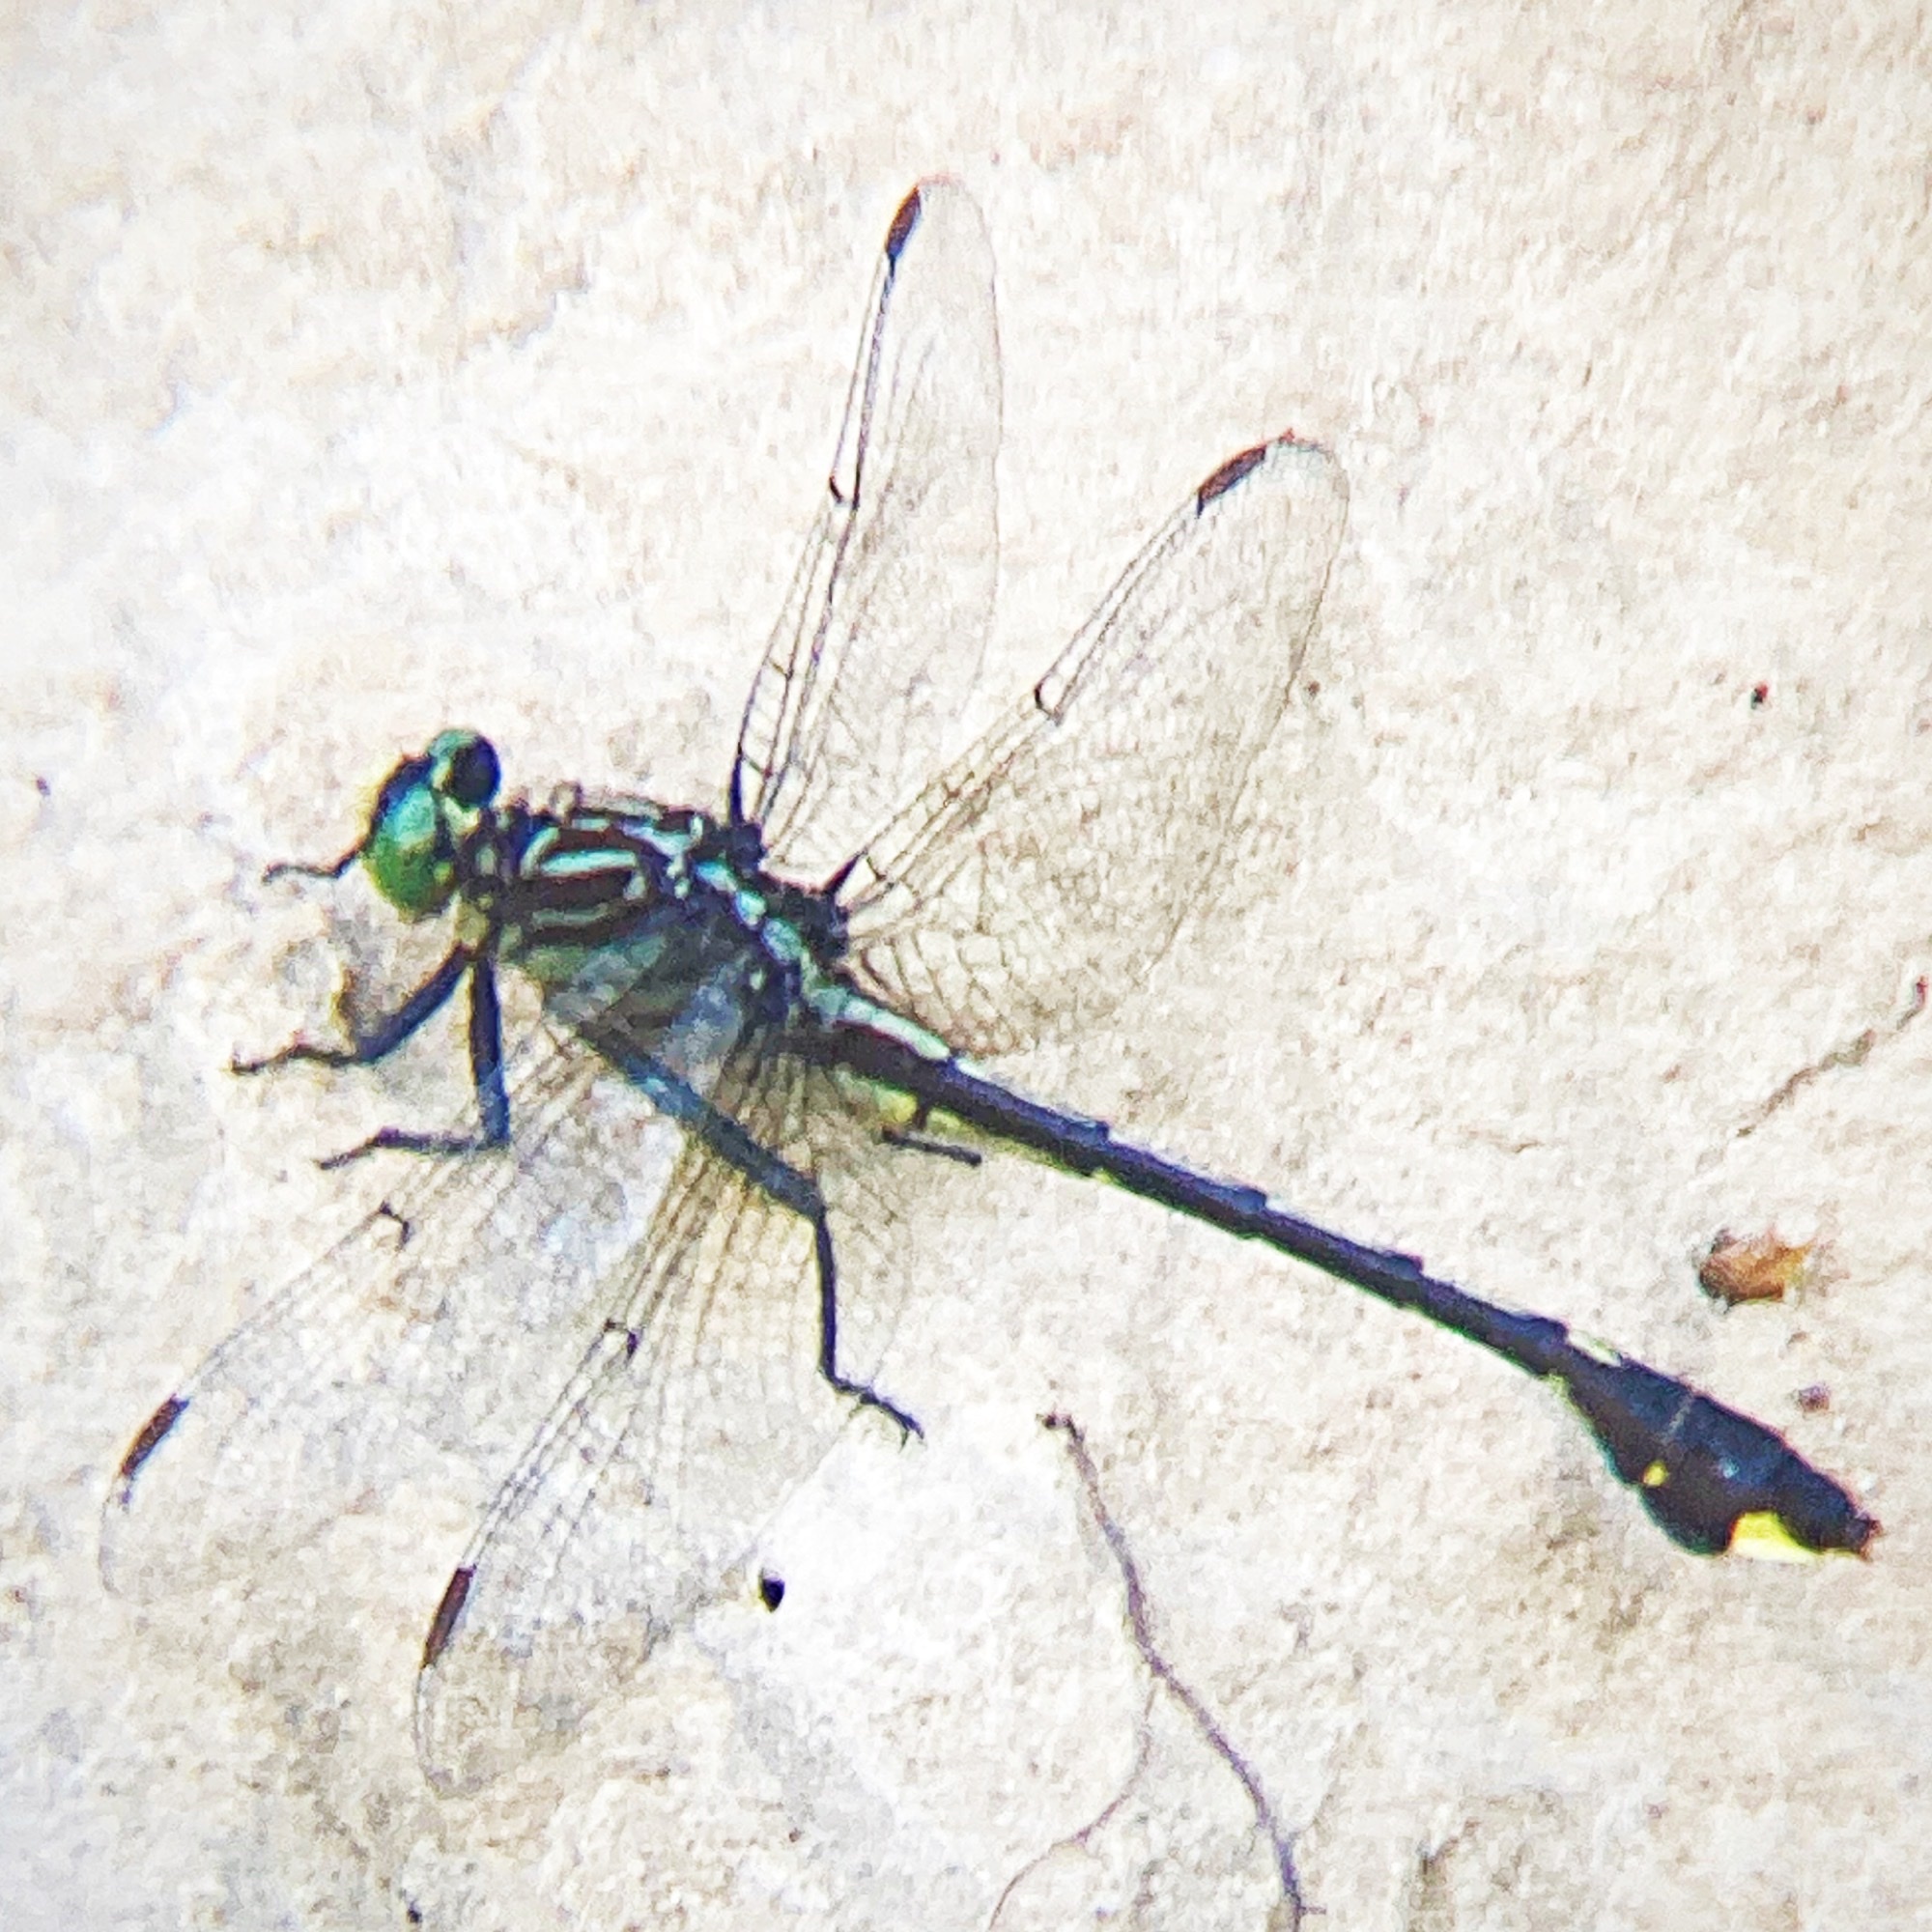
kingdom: Animalia
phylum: Arthropoda
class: Insecta
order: Odonata
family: Gomphidae
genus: Gomphurus
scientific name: Gomphurus vastus
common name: Cobra clubtail
